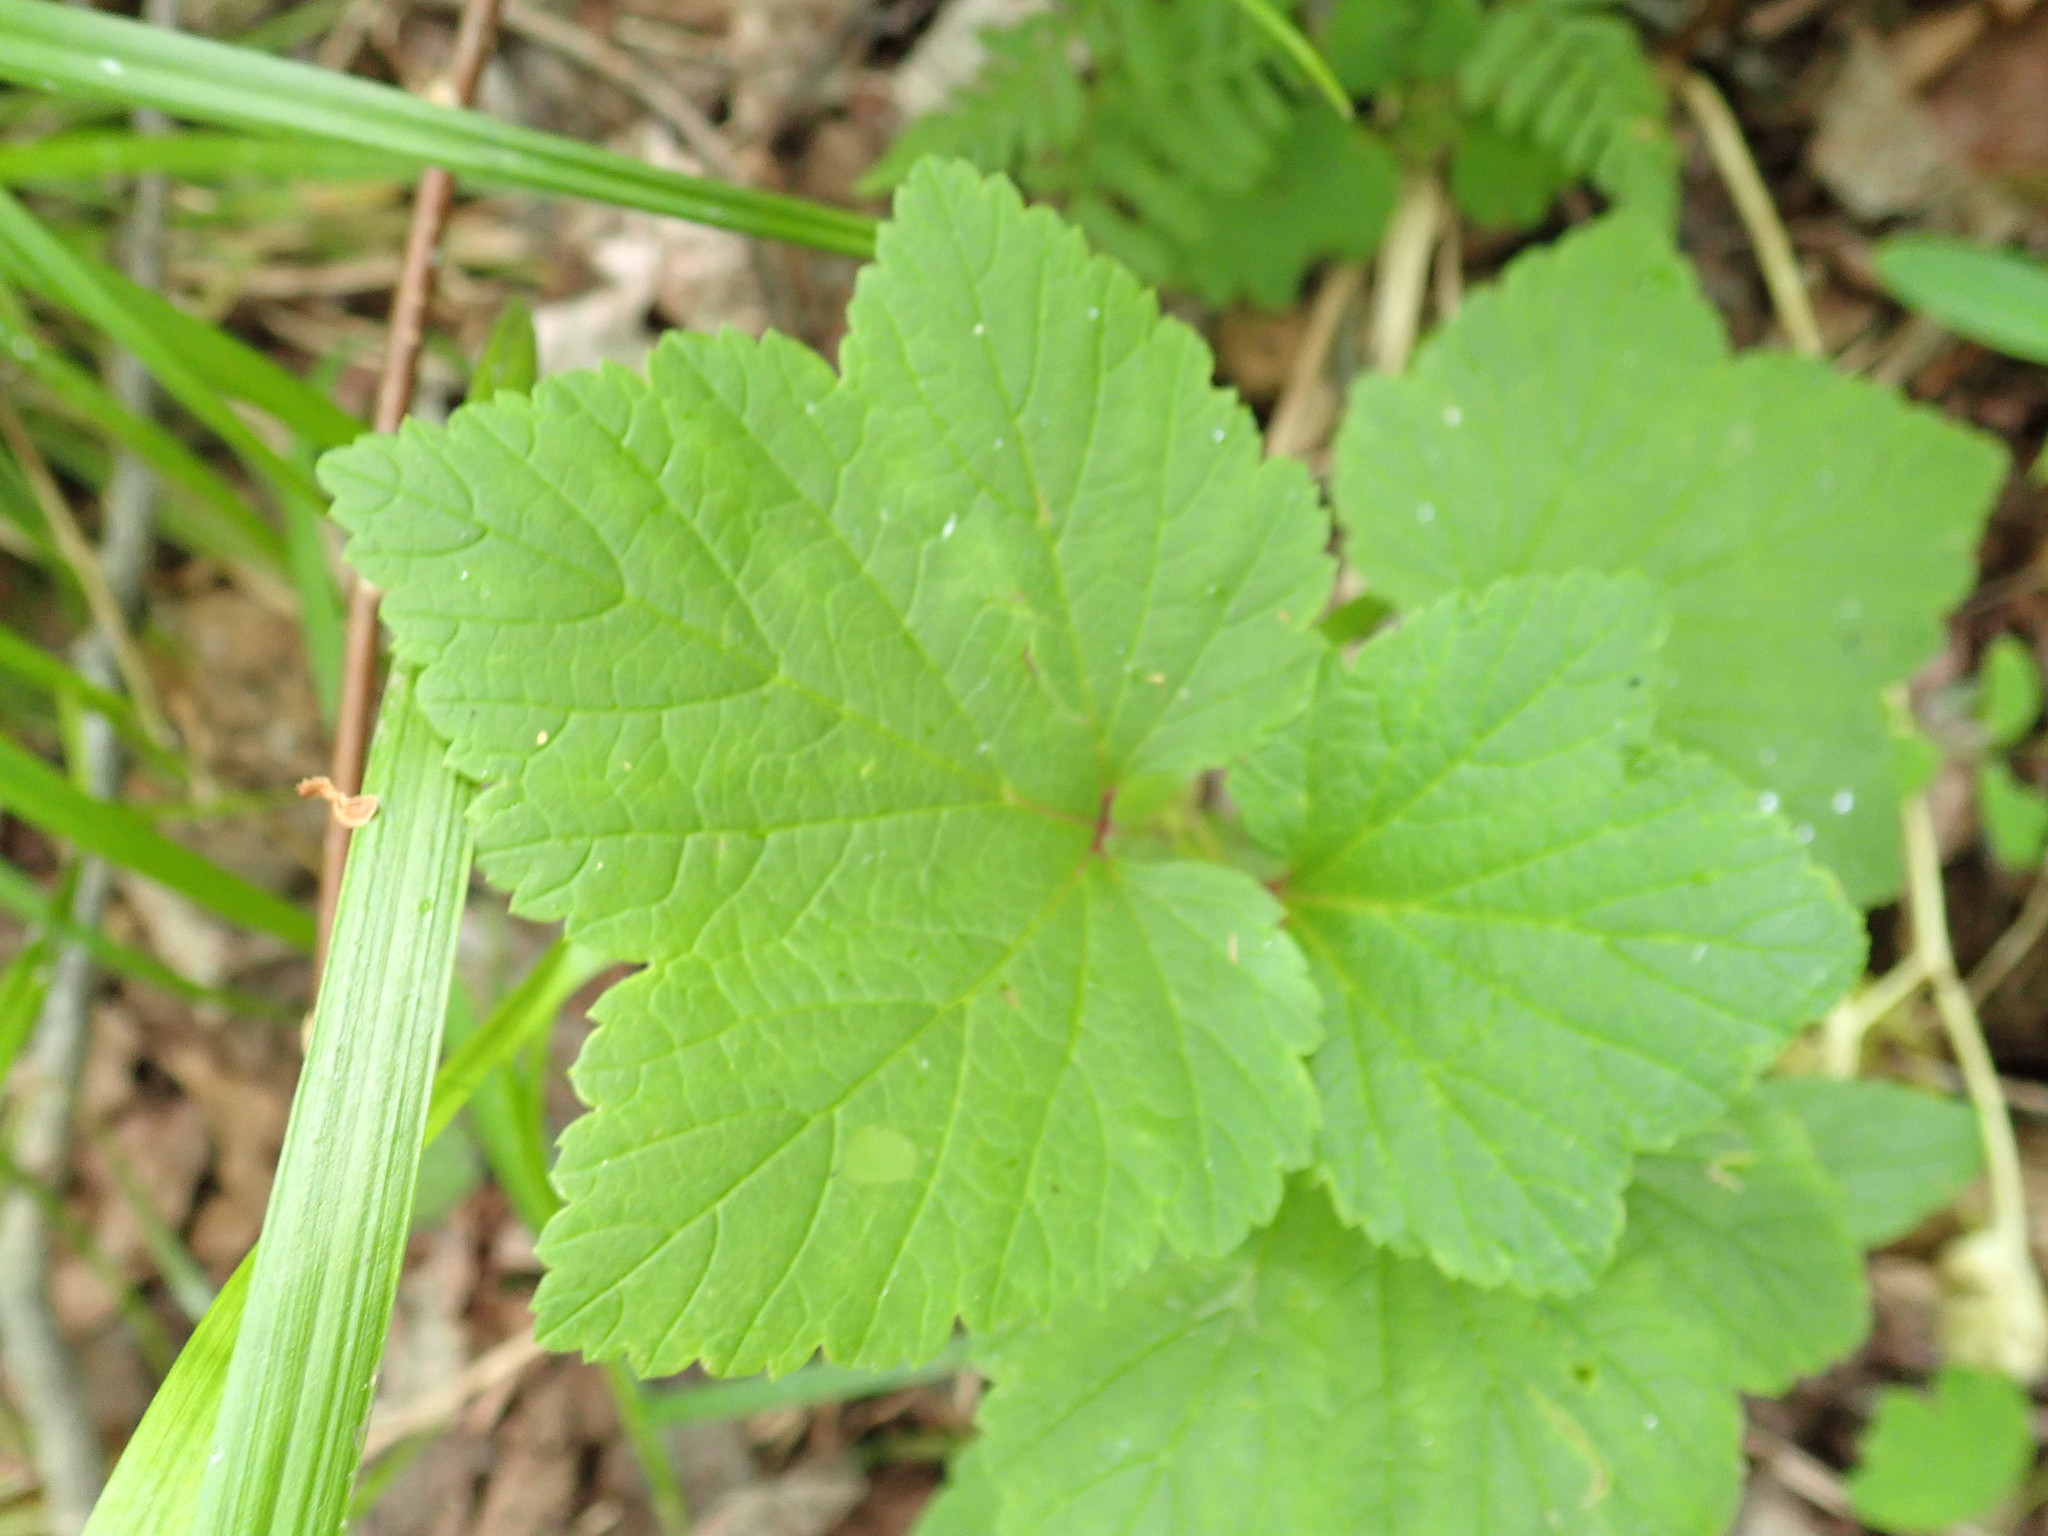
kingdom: Plantae
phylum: Tracheophyta
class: Magnoliopsida
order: Saxifragales
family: Grossulariaceae
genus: Ribes
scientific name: Ribes triste
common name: Swamp red currant
